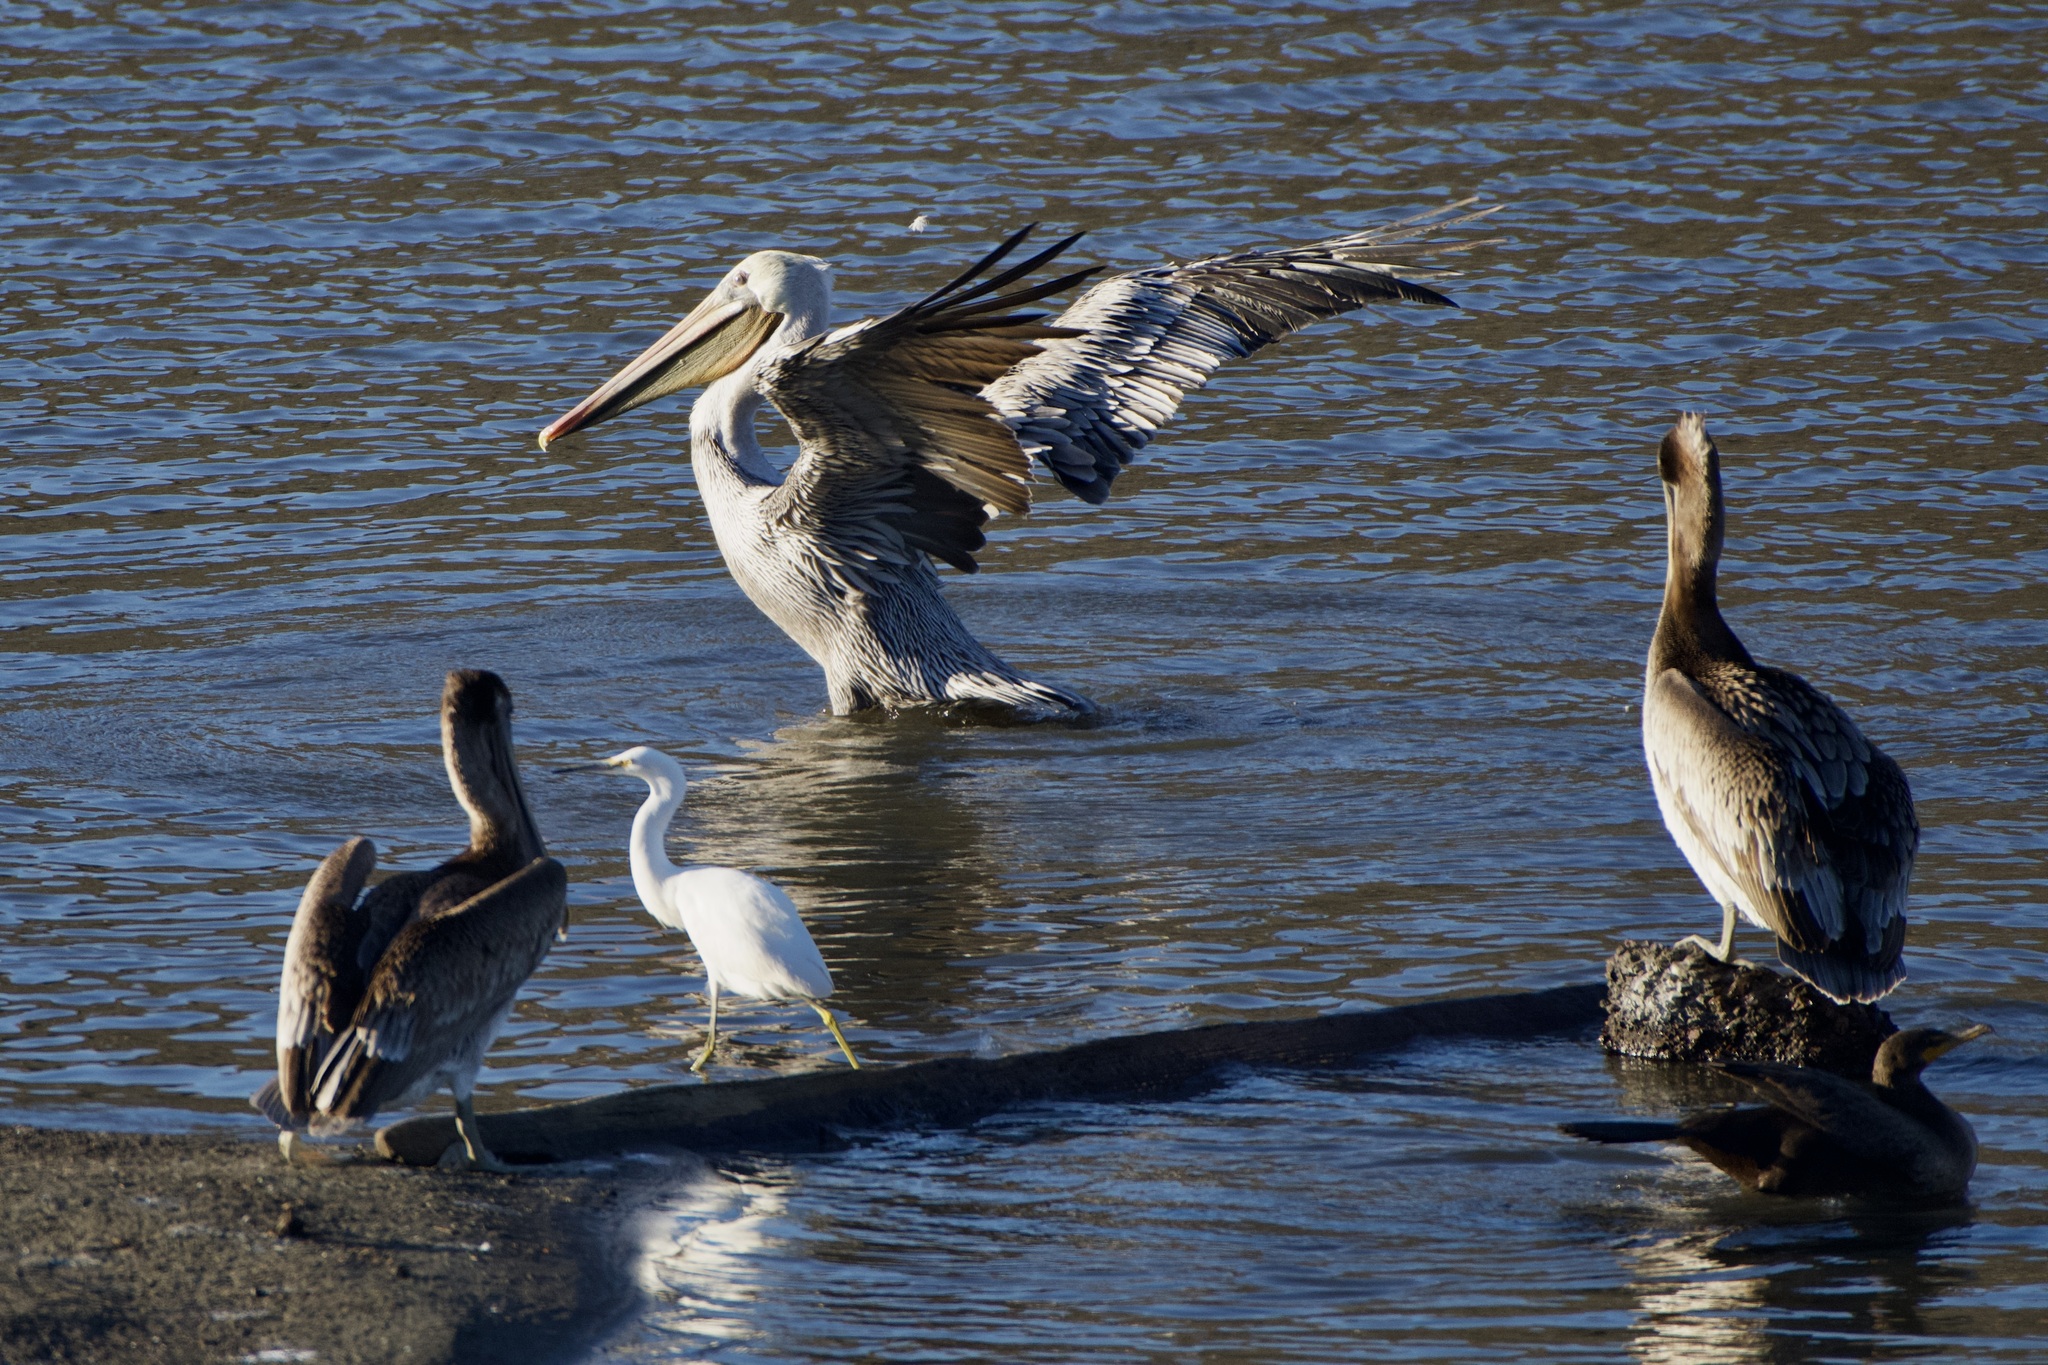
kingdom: Animalia
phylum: Chordata
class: Aves
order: Pelecaniformes
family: Pelecanidae
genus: Pelecanus
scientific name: Pelecanus occidentalis
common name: Brown pelican
